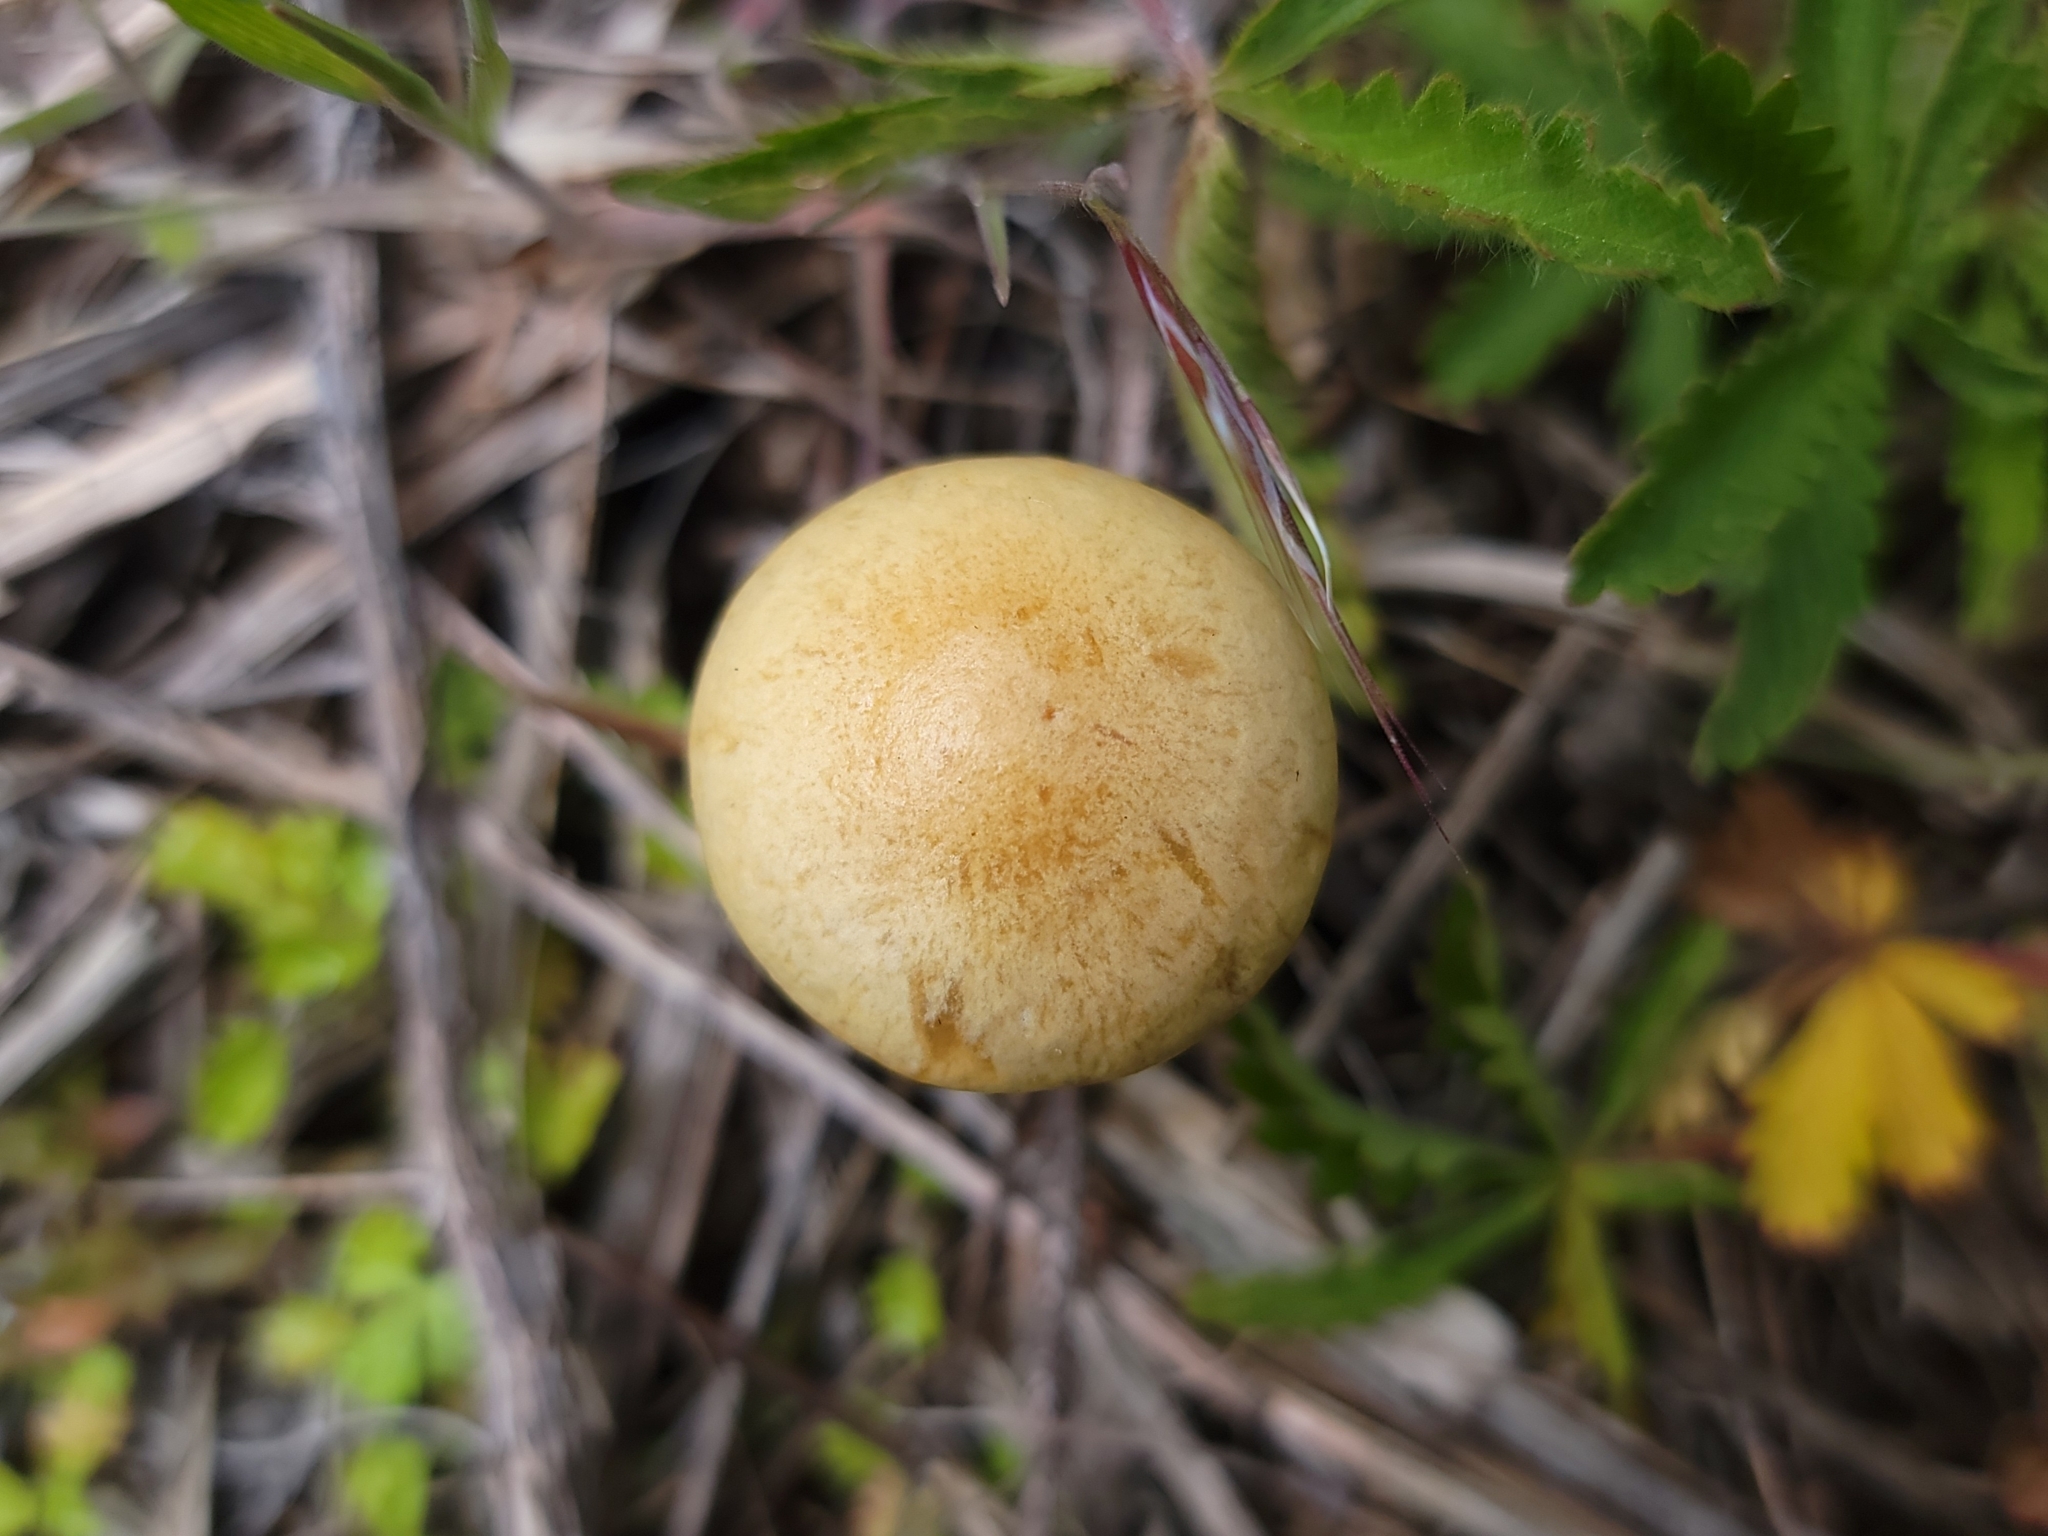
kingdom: Fungi
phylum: Basidiomycota
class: Agaricomycetes
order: Agaricales
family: Strophariaceae
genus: Agrocybe
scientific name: Agrocybe pediades
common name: Common fieldcap
